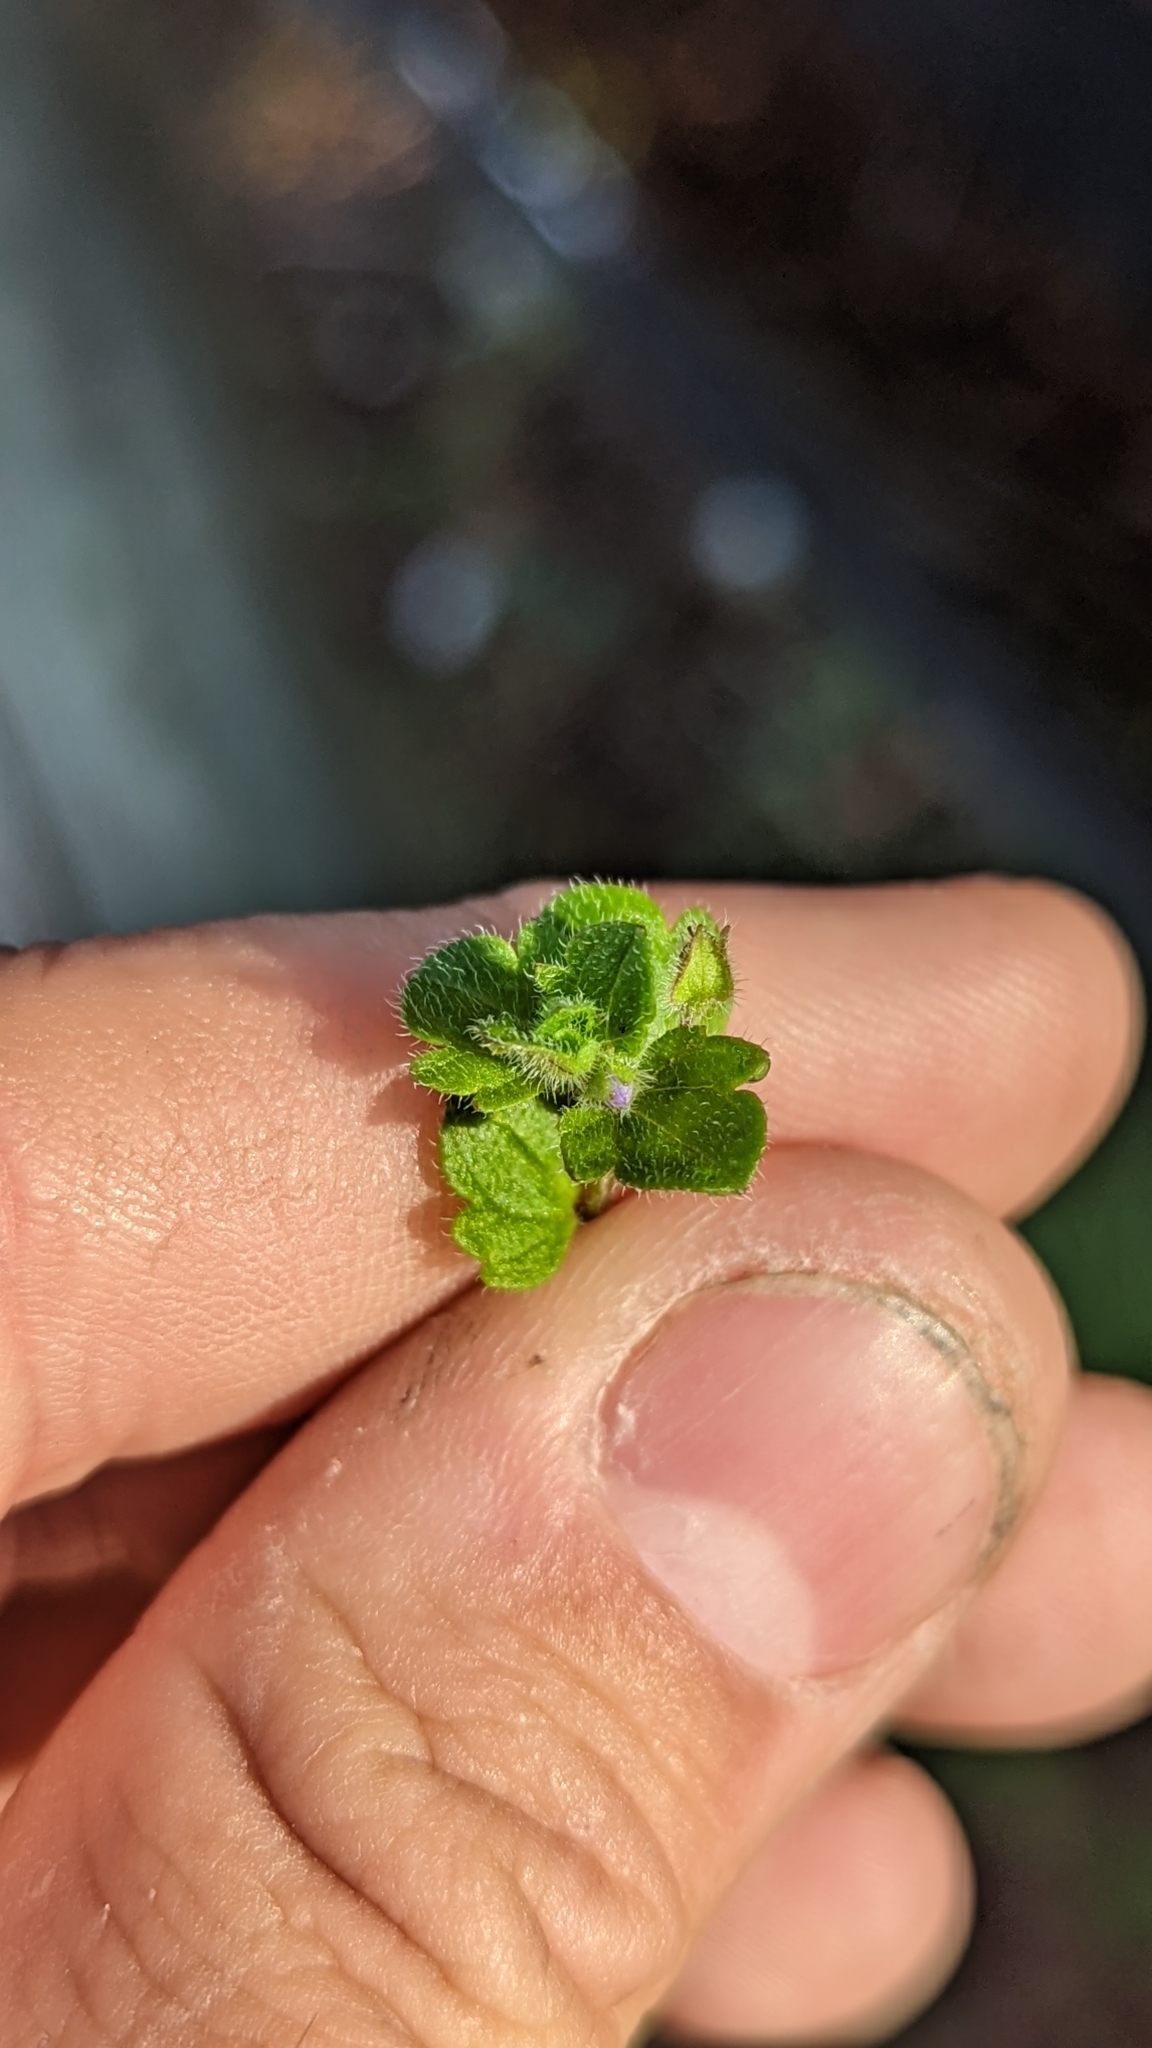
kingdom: Plantae
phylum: Tracheophyta
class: Magnoliopsida
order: Lamiales
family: Plantaginaceae
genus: Veronica
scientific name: Veronica hederifolia
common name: Ivy-leaved speedwell
